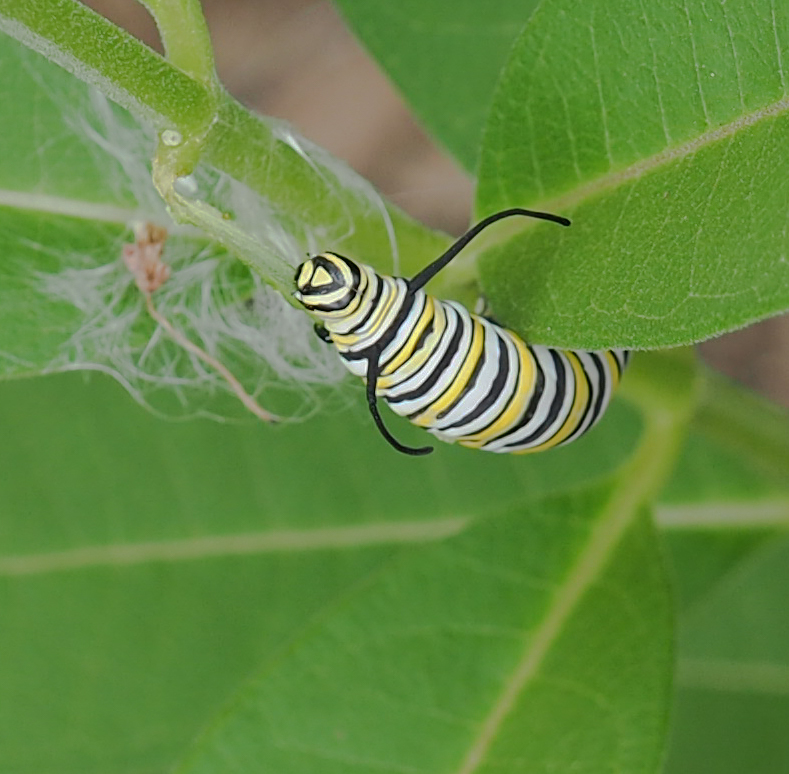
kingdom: Animalia
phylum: Arthropoda
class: Insecta
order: Lepidoptera
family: Nymphalidae
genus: Danaus
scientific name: Danaus plexippus
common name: Monarch
